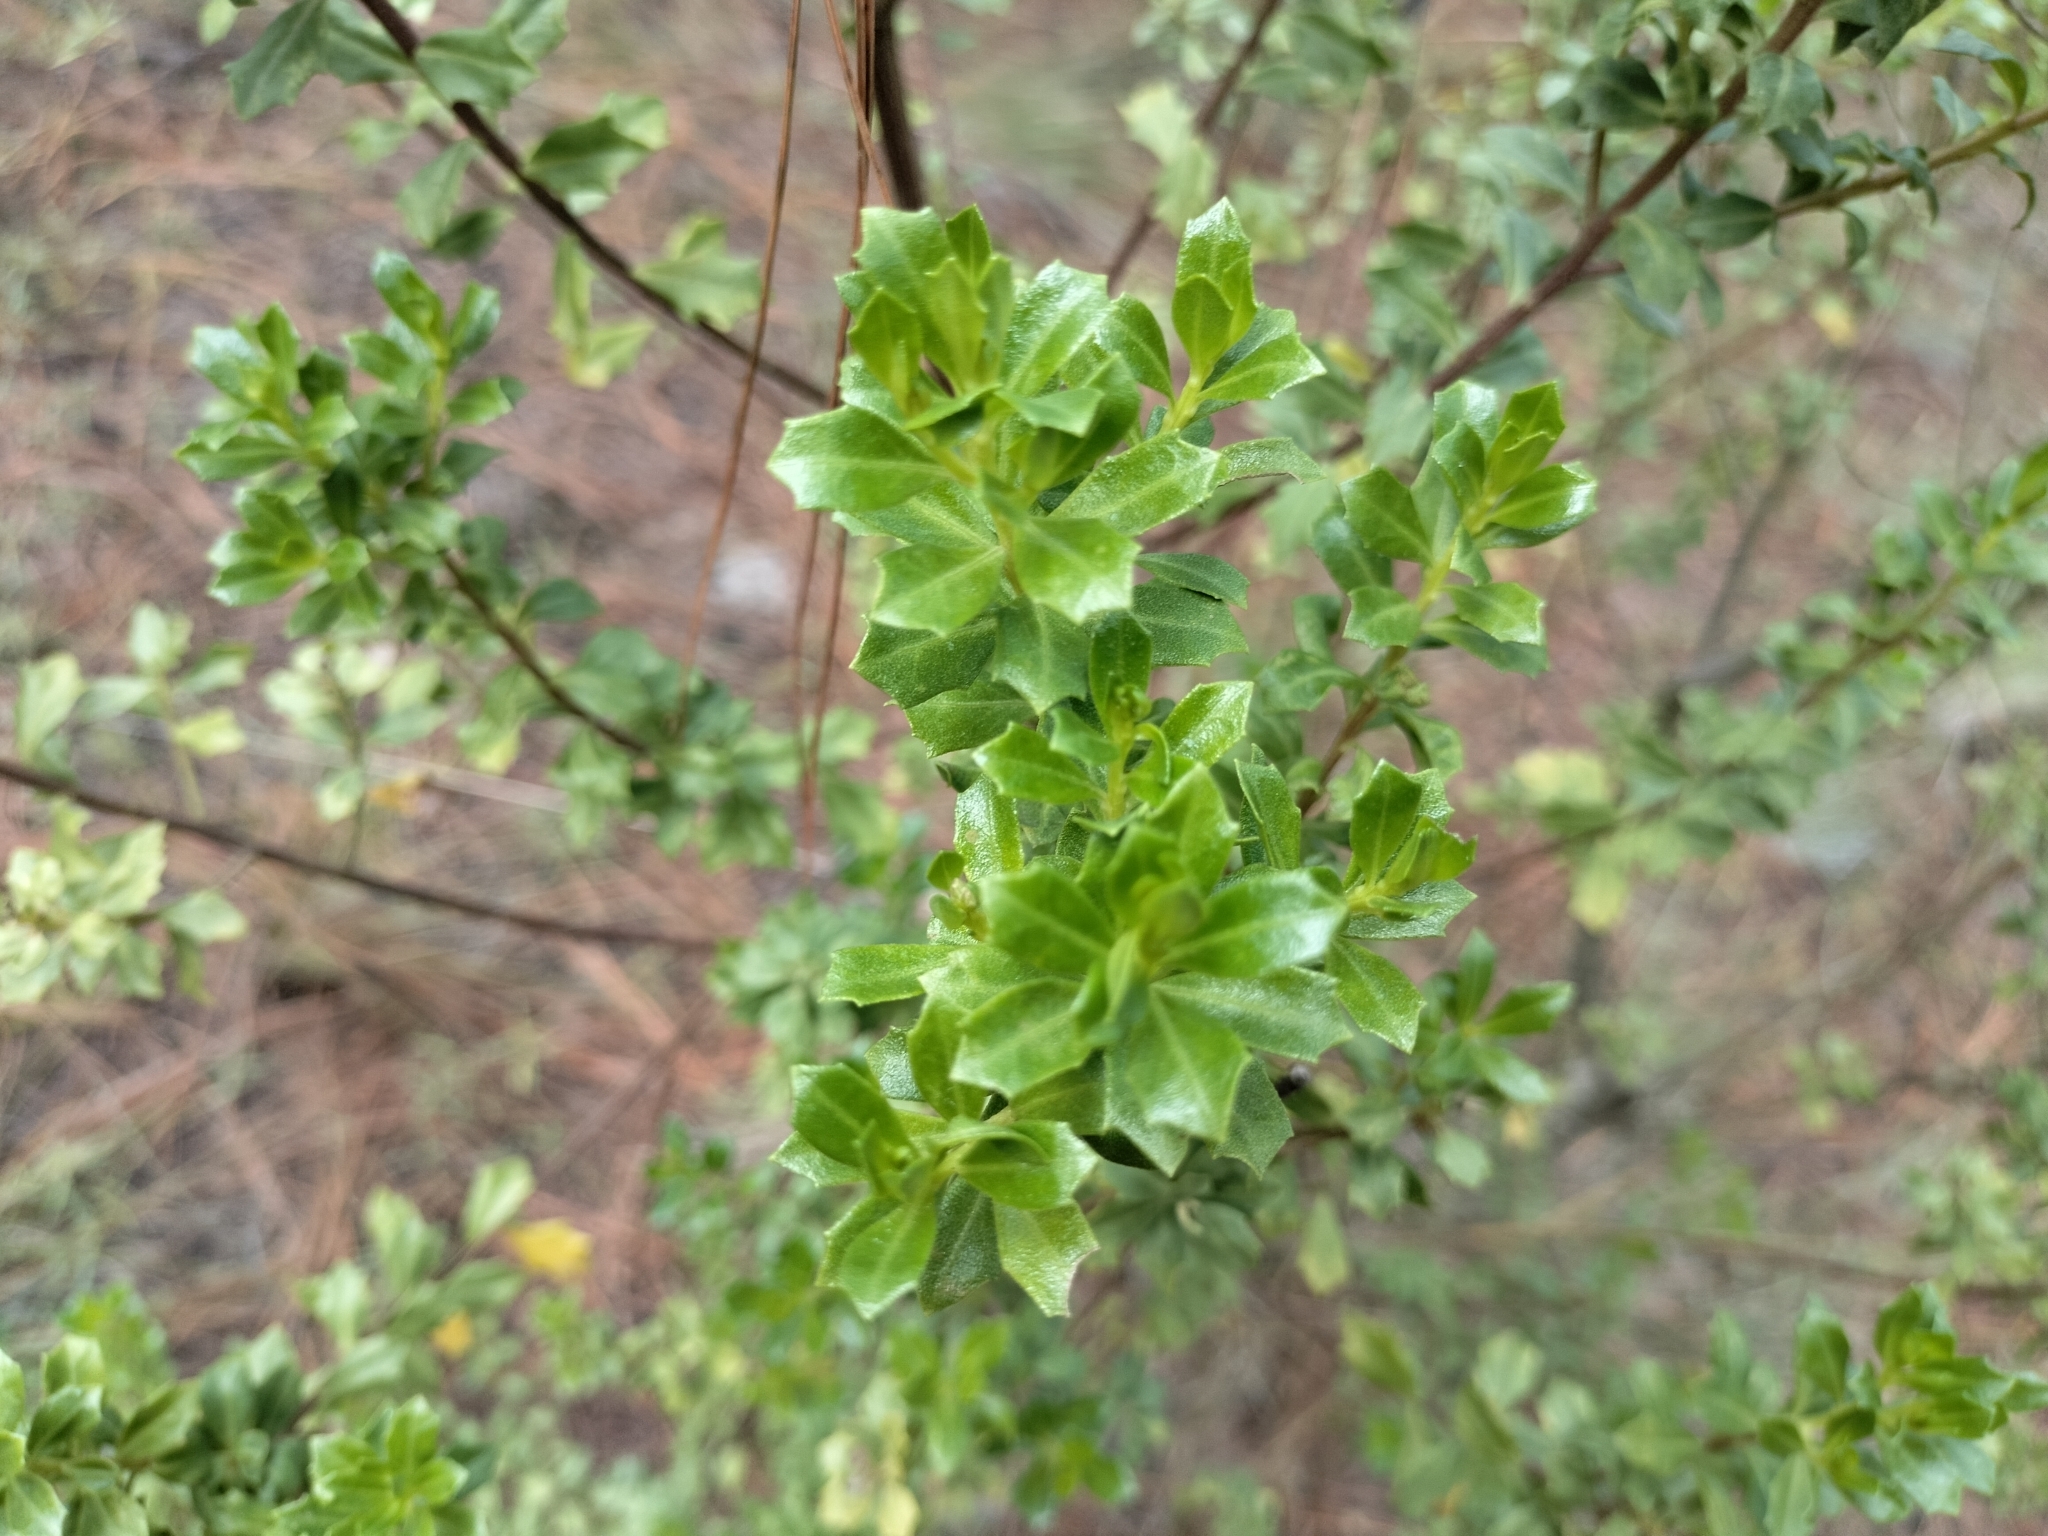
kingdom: Plantae
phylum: Tracheophyta
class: Magnoliopsida
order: Asterales
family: Asteraceae
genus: Baccharis
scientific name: Baccharis conferta
